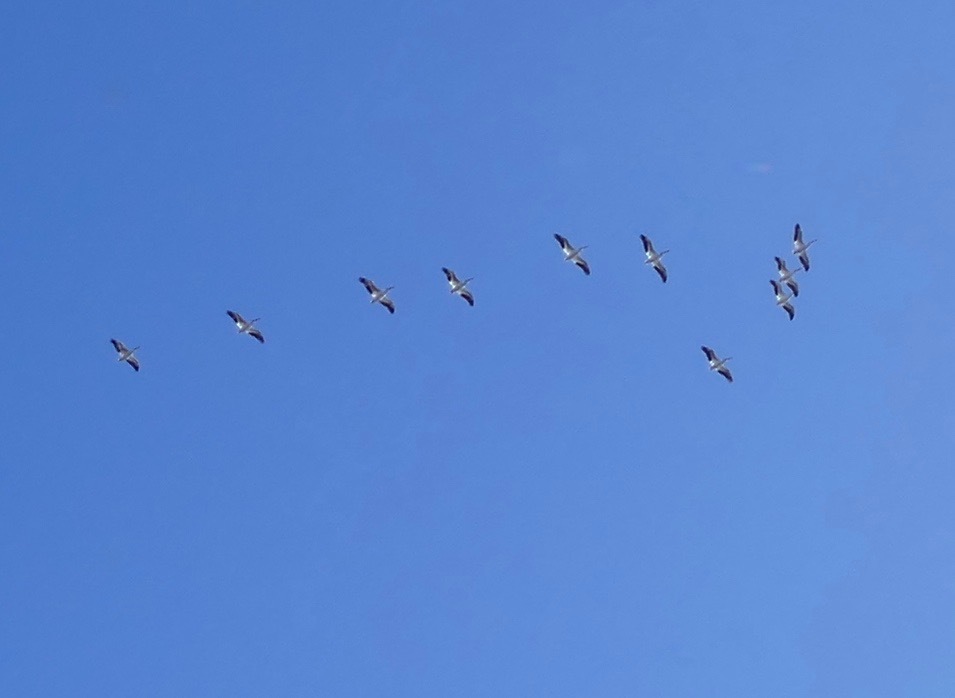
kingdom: Animalia
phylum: Chordata
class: Aves
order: Pelecaniformes
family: Pelecanidae
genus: Pelecanus
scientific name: Pelecanus erythrorhynchos
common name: American white pelican
